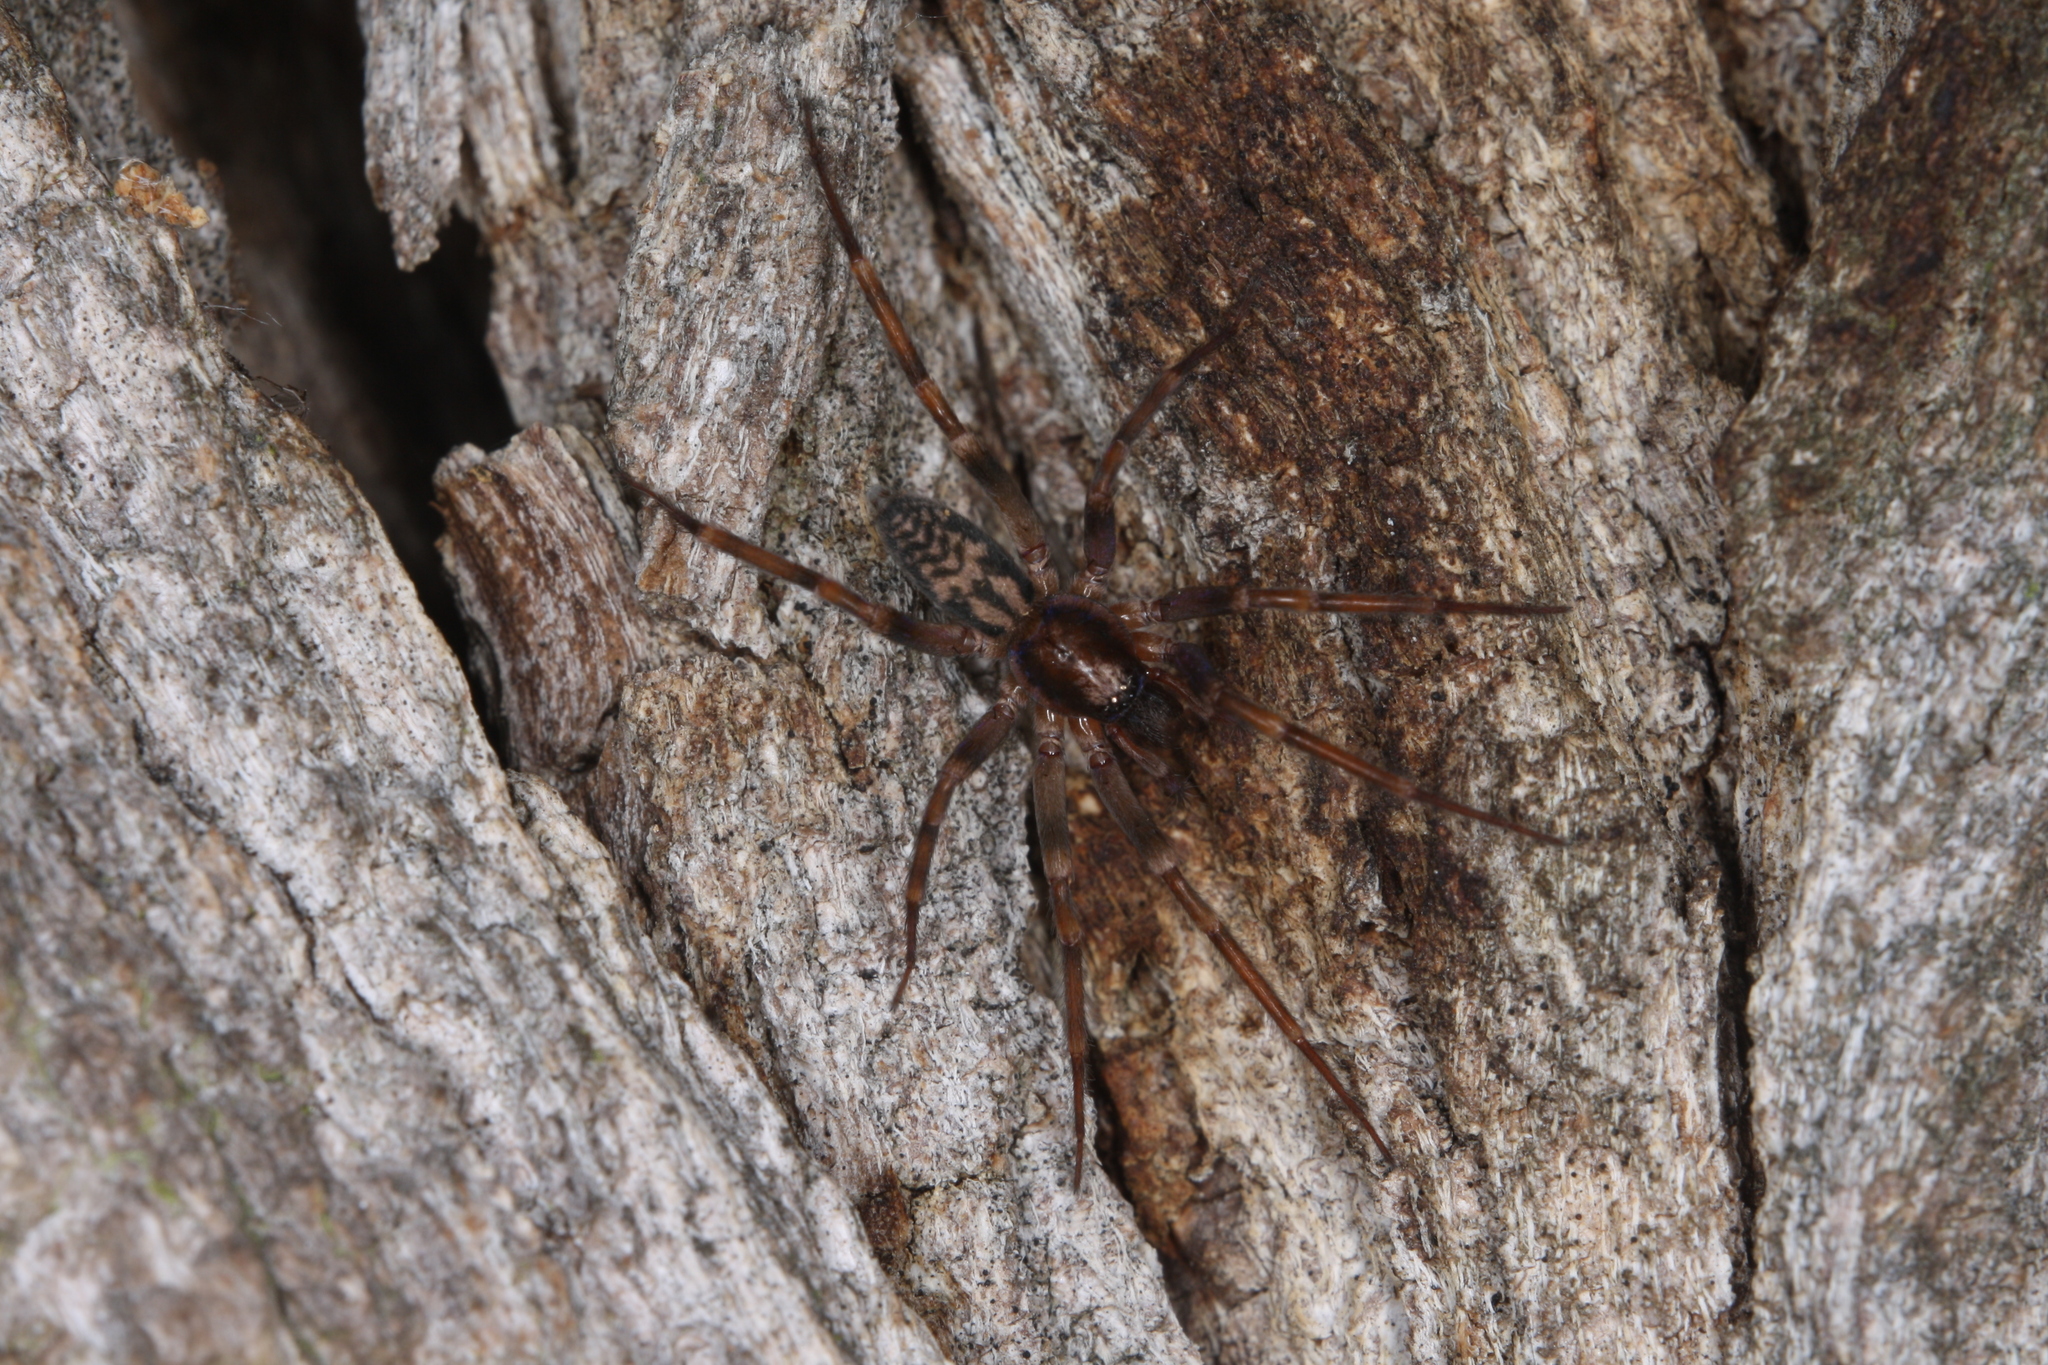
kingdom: Animalia
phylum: Arthropoda
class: Arachnida
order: Araneae
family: Liocranidae
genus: Liocranum
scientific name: Liocranum rupicola
